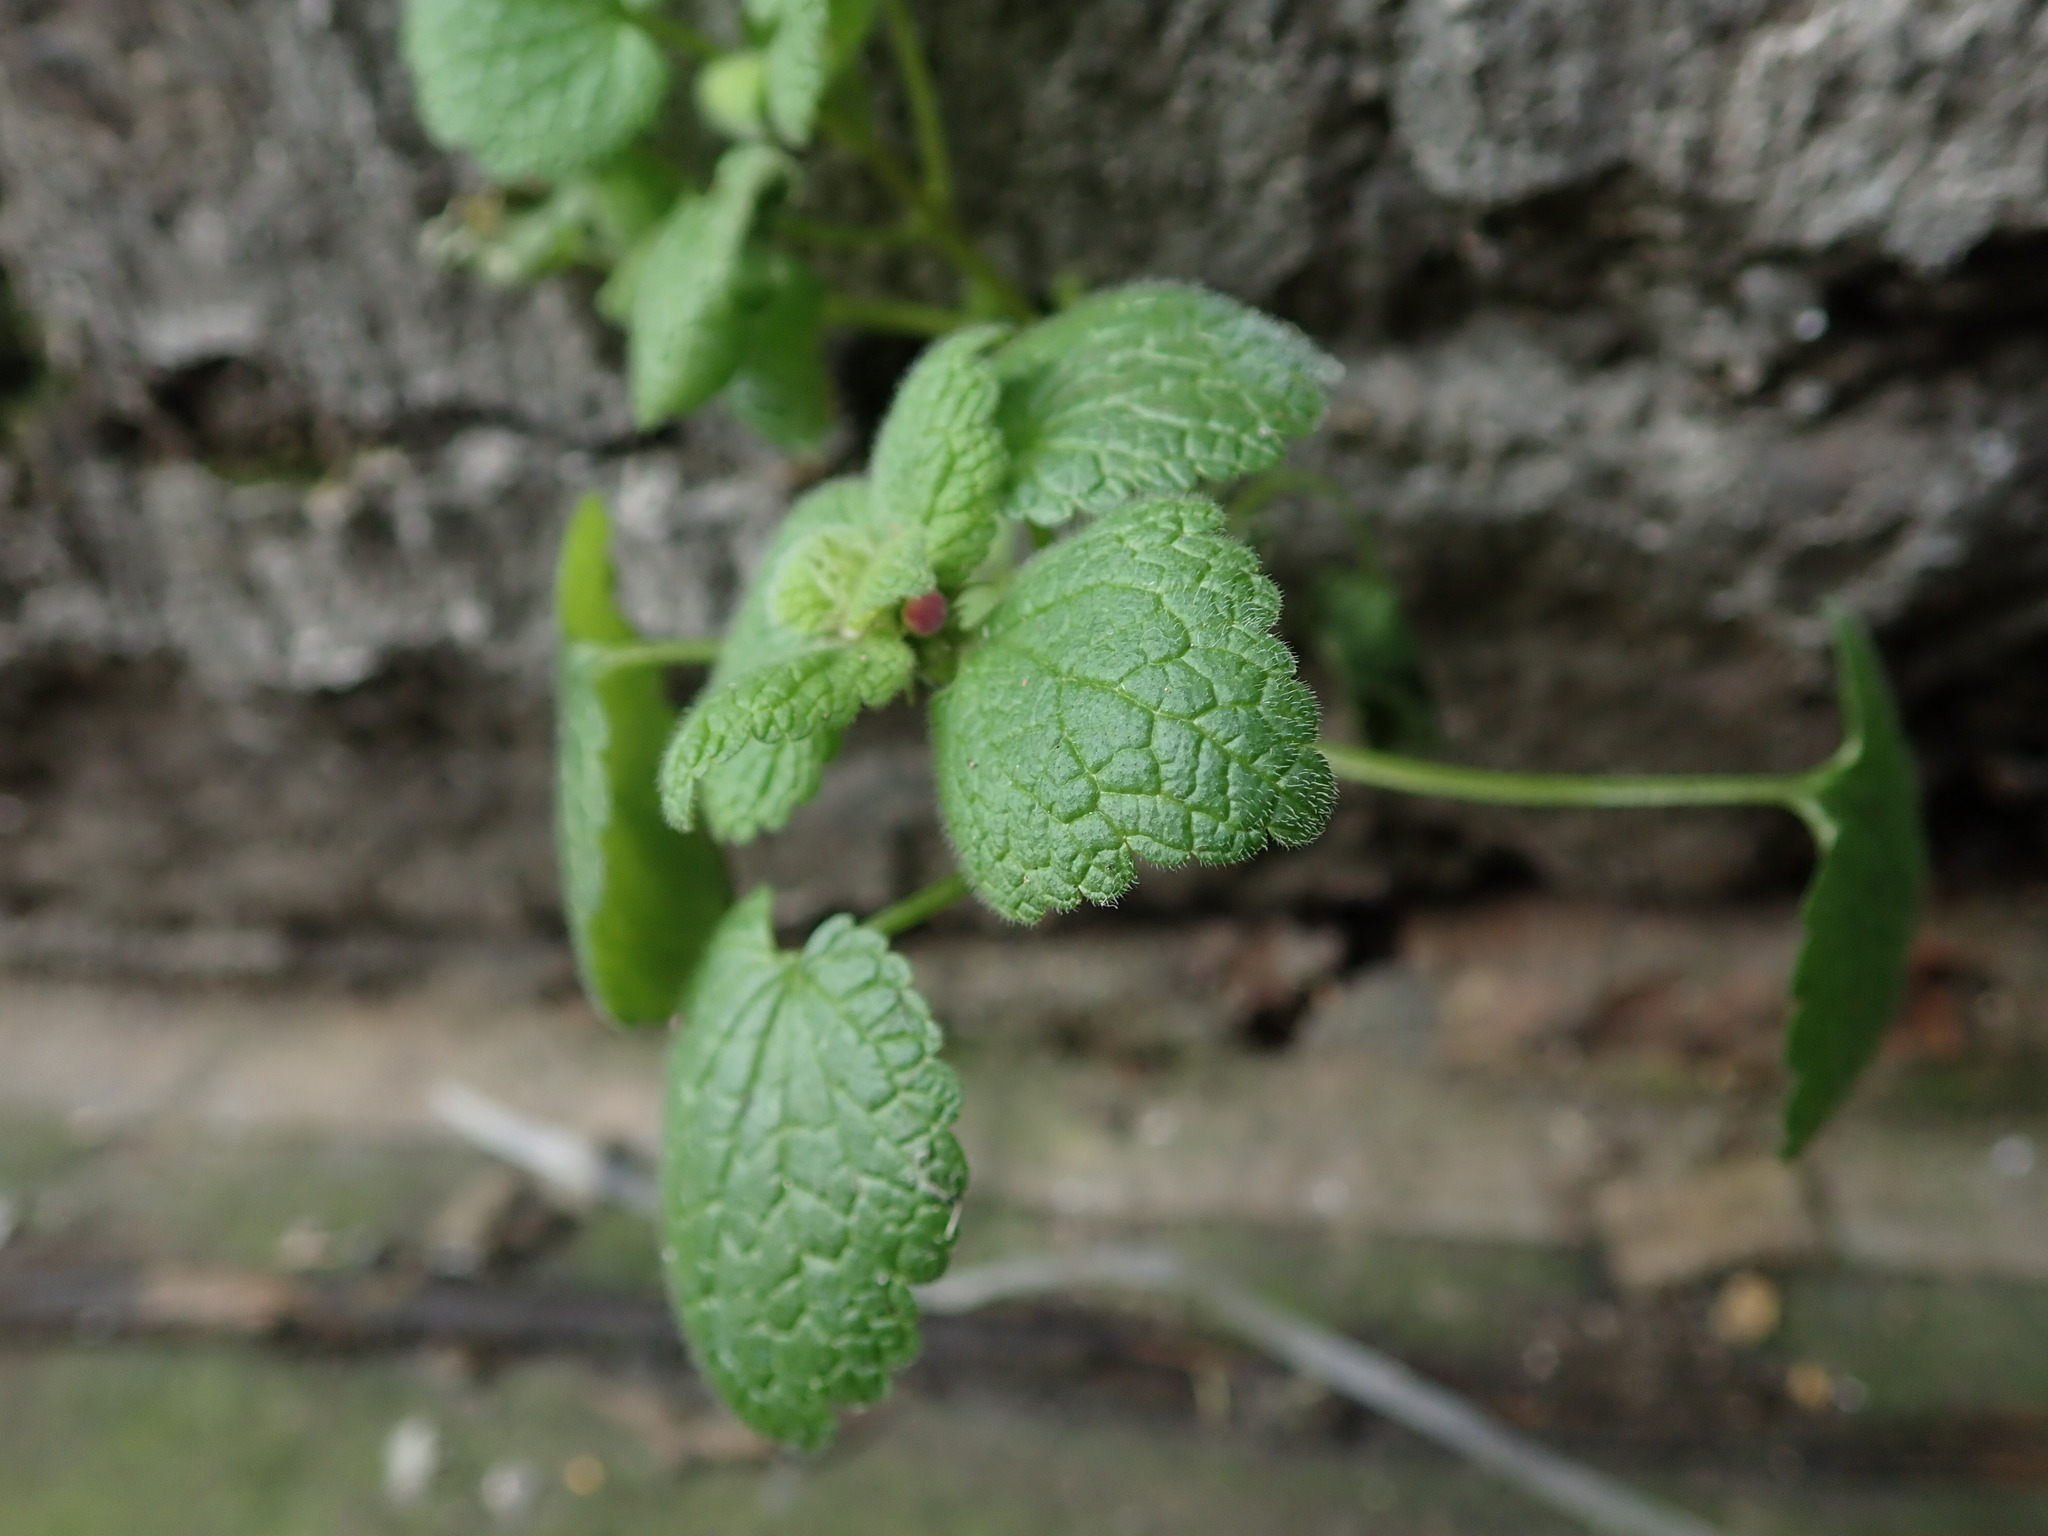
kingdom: Plantae
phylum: Tracheophyta
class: Magnoliopsida
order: Lamiales
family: Lamiaceae
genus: Lamium
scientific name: Lamium purpureum
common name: Red dead-nettle
